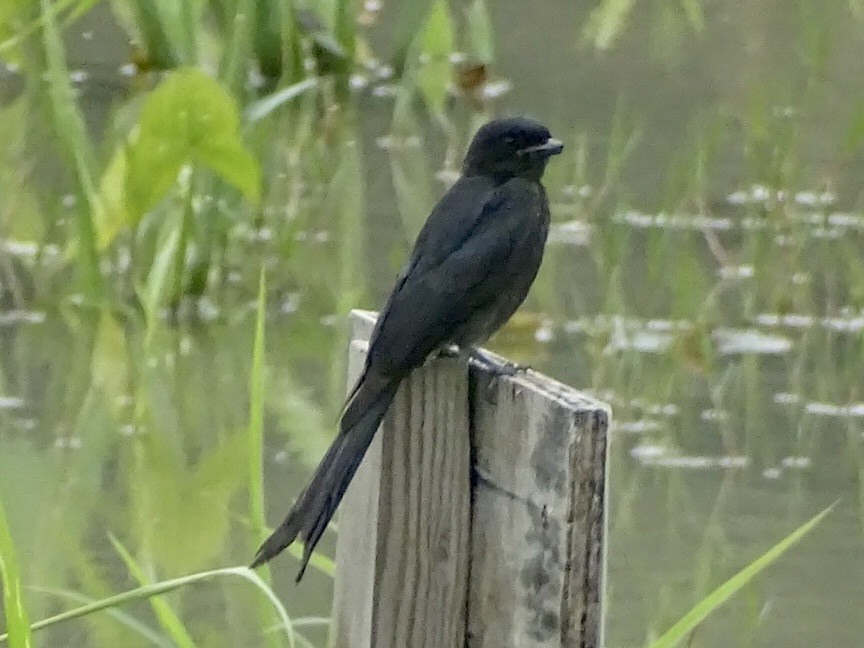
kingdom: Animalia
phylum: Chordata
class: Aves
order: Passeriformes
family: Dicruridae
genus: Dicrurus
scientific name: Dicrurus macrocercus
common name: Black drongo
